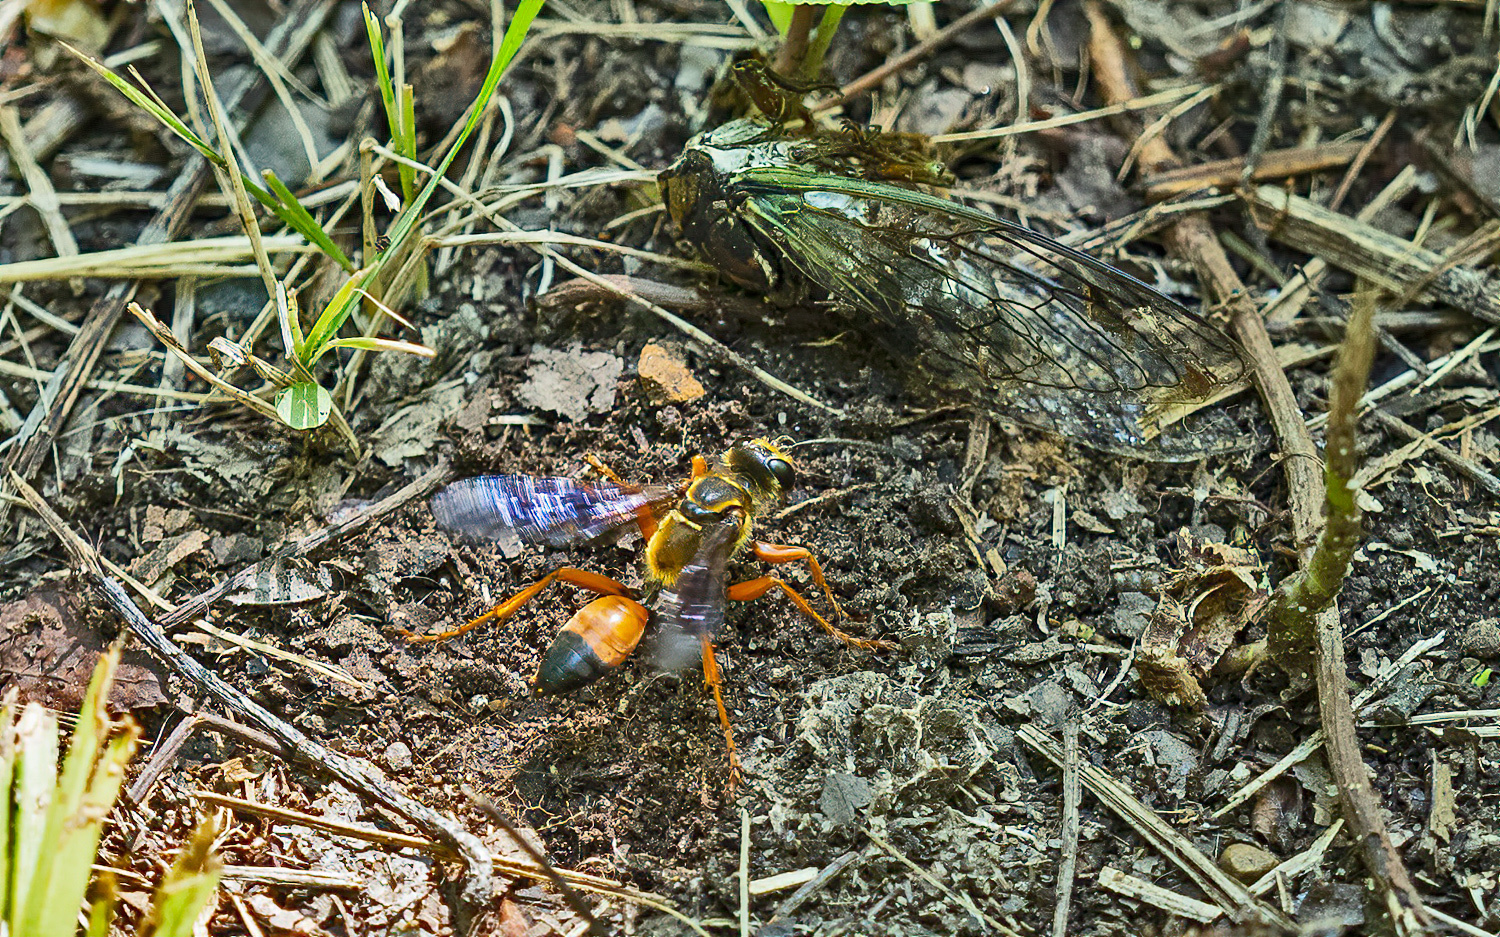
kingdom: Animalia
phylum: Arthropoda
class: Insecta
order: Hymenoptera
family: Sphecidae
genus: Sphex
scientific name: Sphex ichneumoneus
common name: Great golden digger wasp
